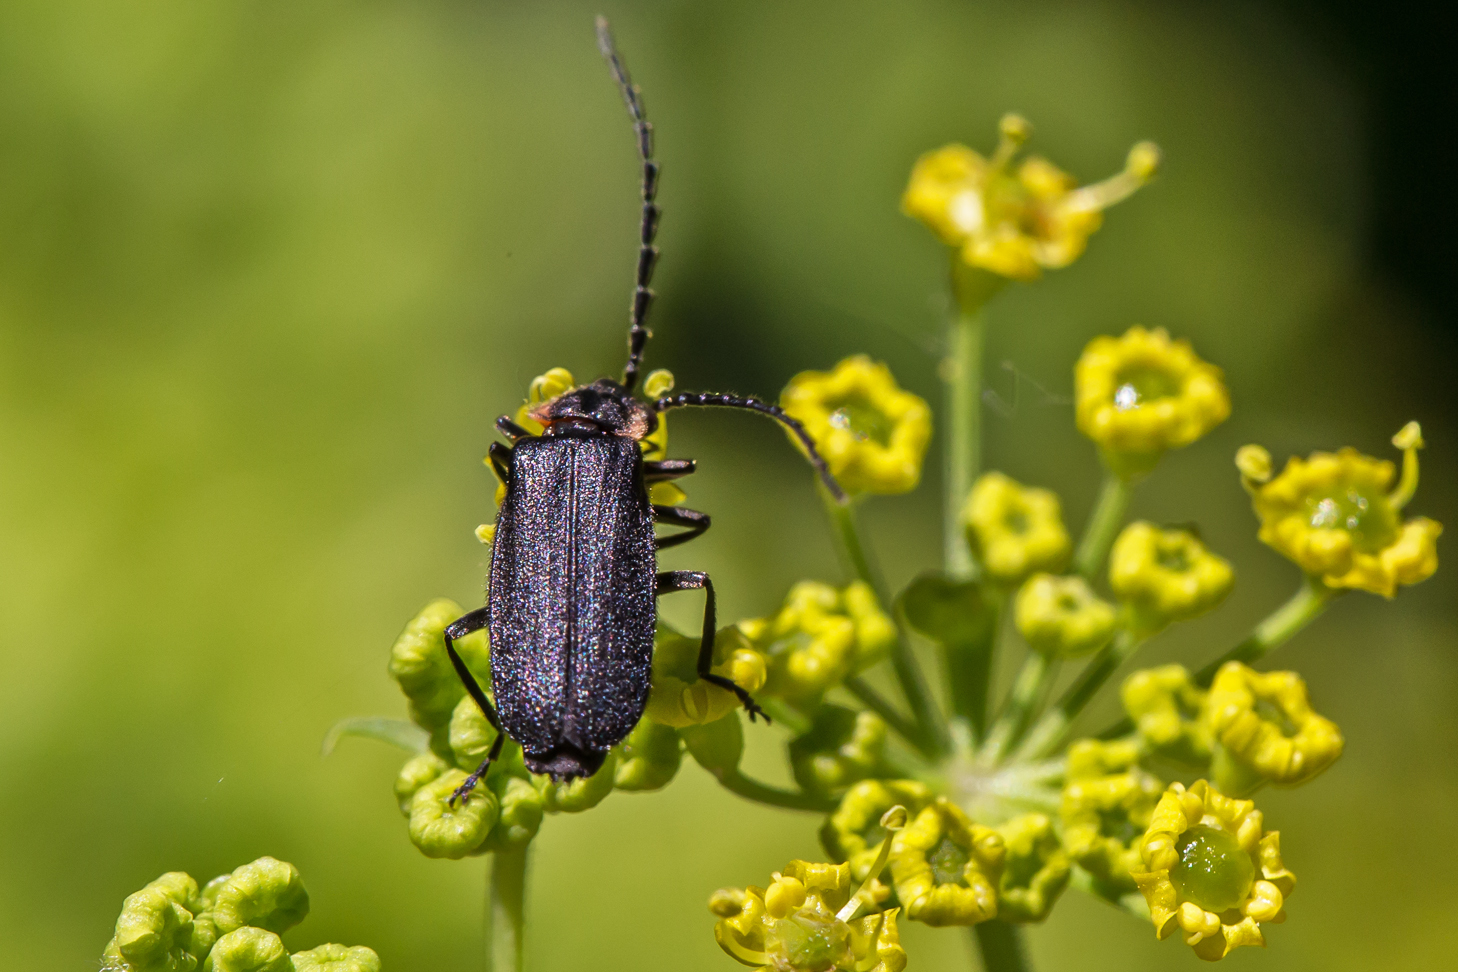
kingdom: Animalia
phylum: Arthropoda
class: Insecta
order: Coleoptera
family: Cantharidae
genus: Polemius
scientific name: Polemius laticornis
